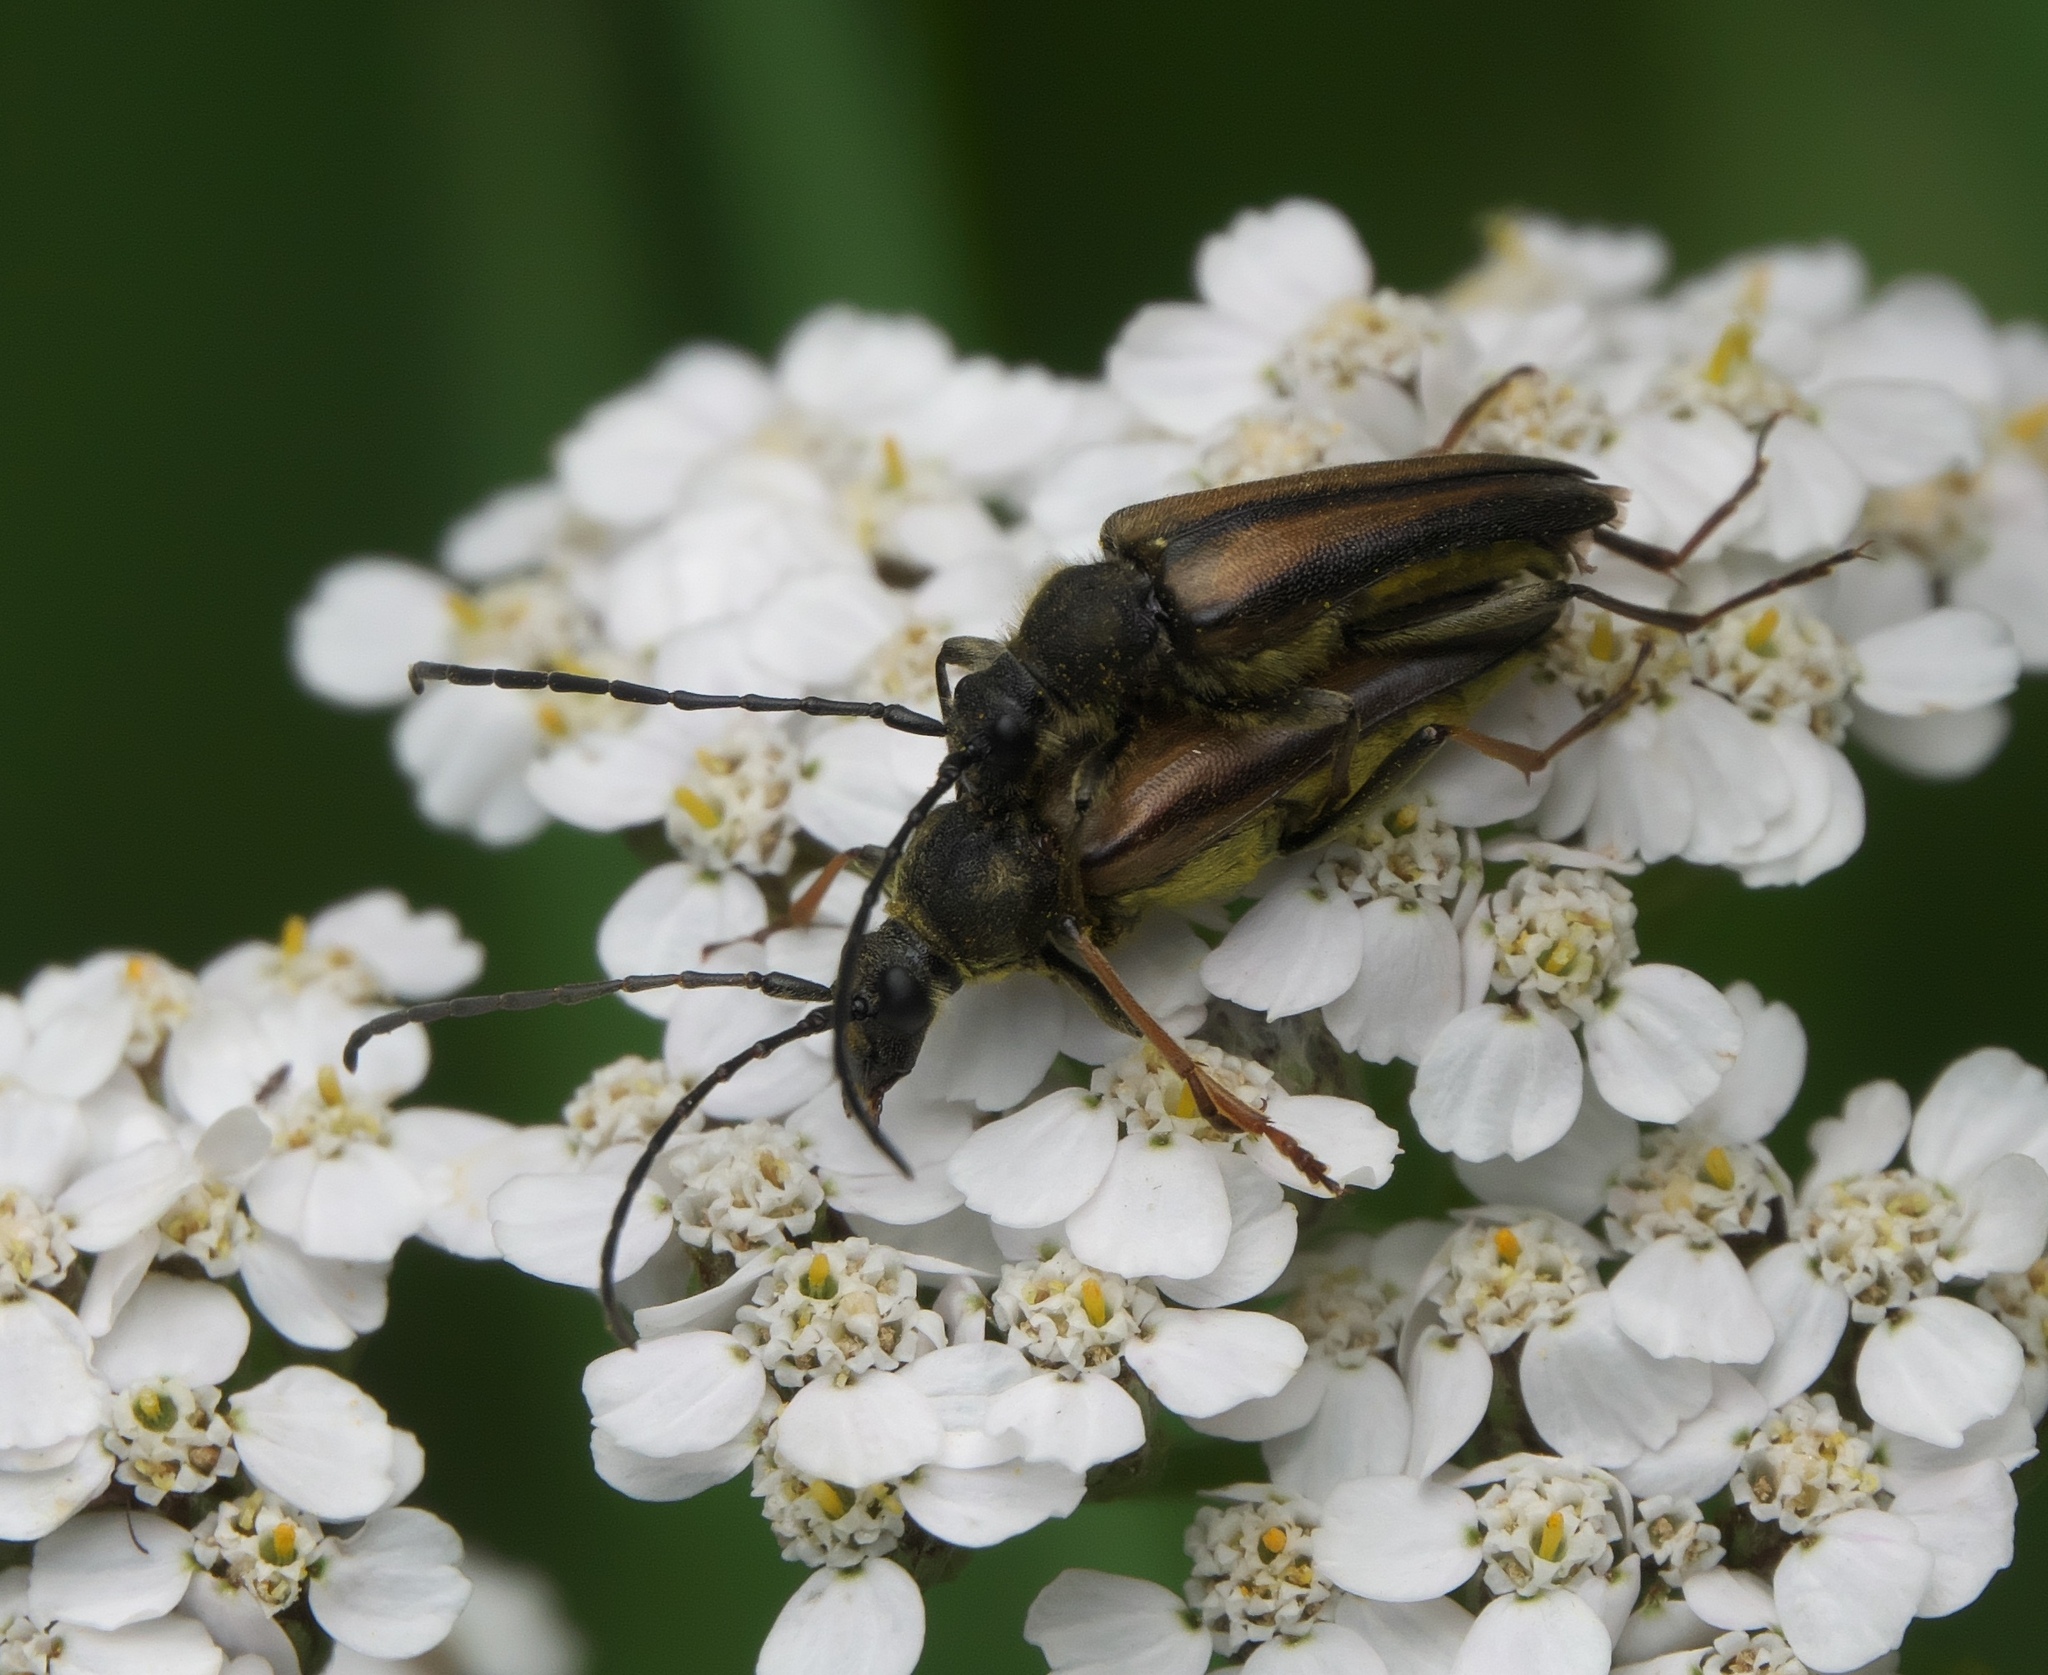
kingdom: Animalia
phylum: Arthropoda
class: Insecta
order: Coleoptera
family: Cerambycidae
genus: Lepturobosca
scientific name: Lepturobosca
